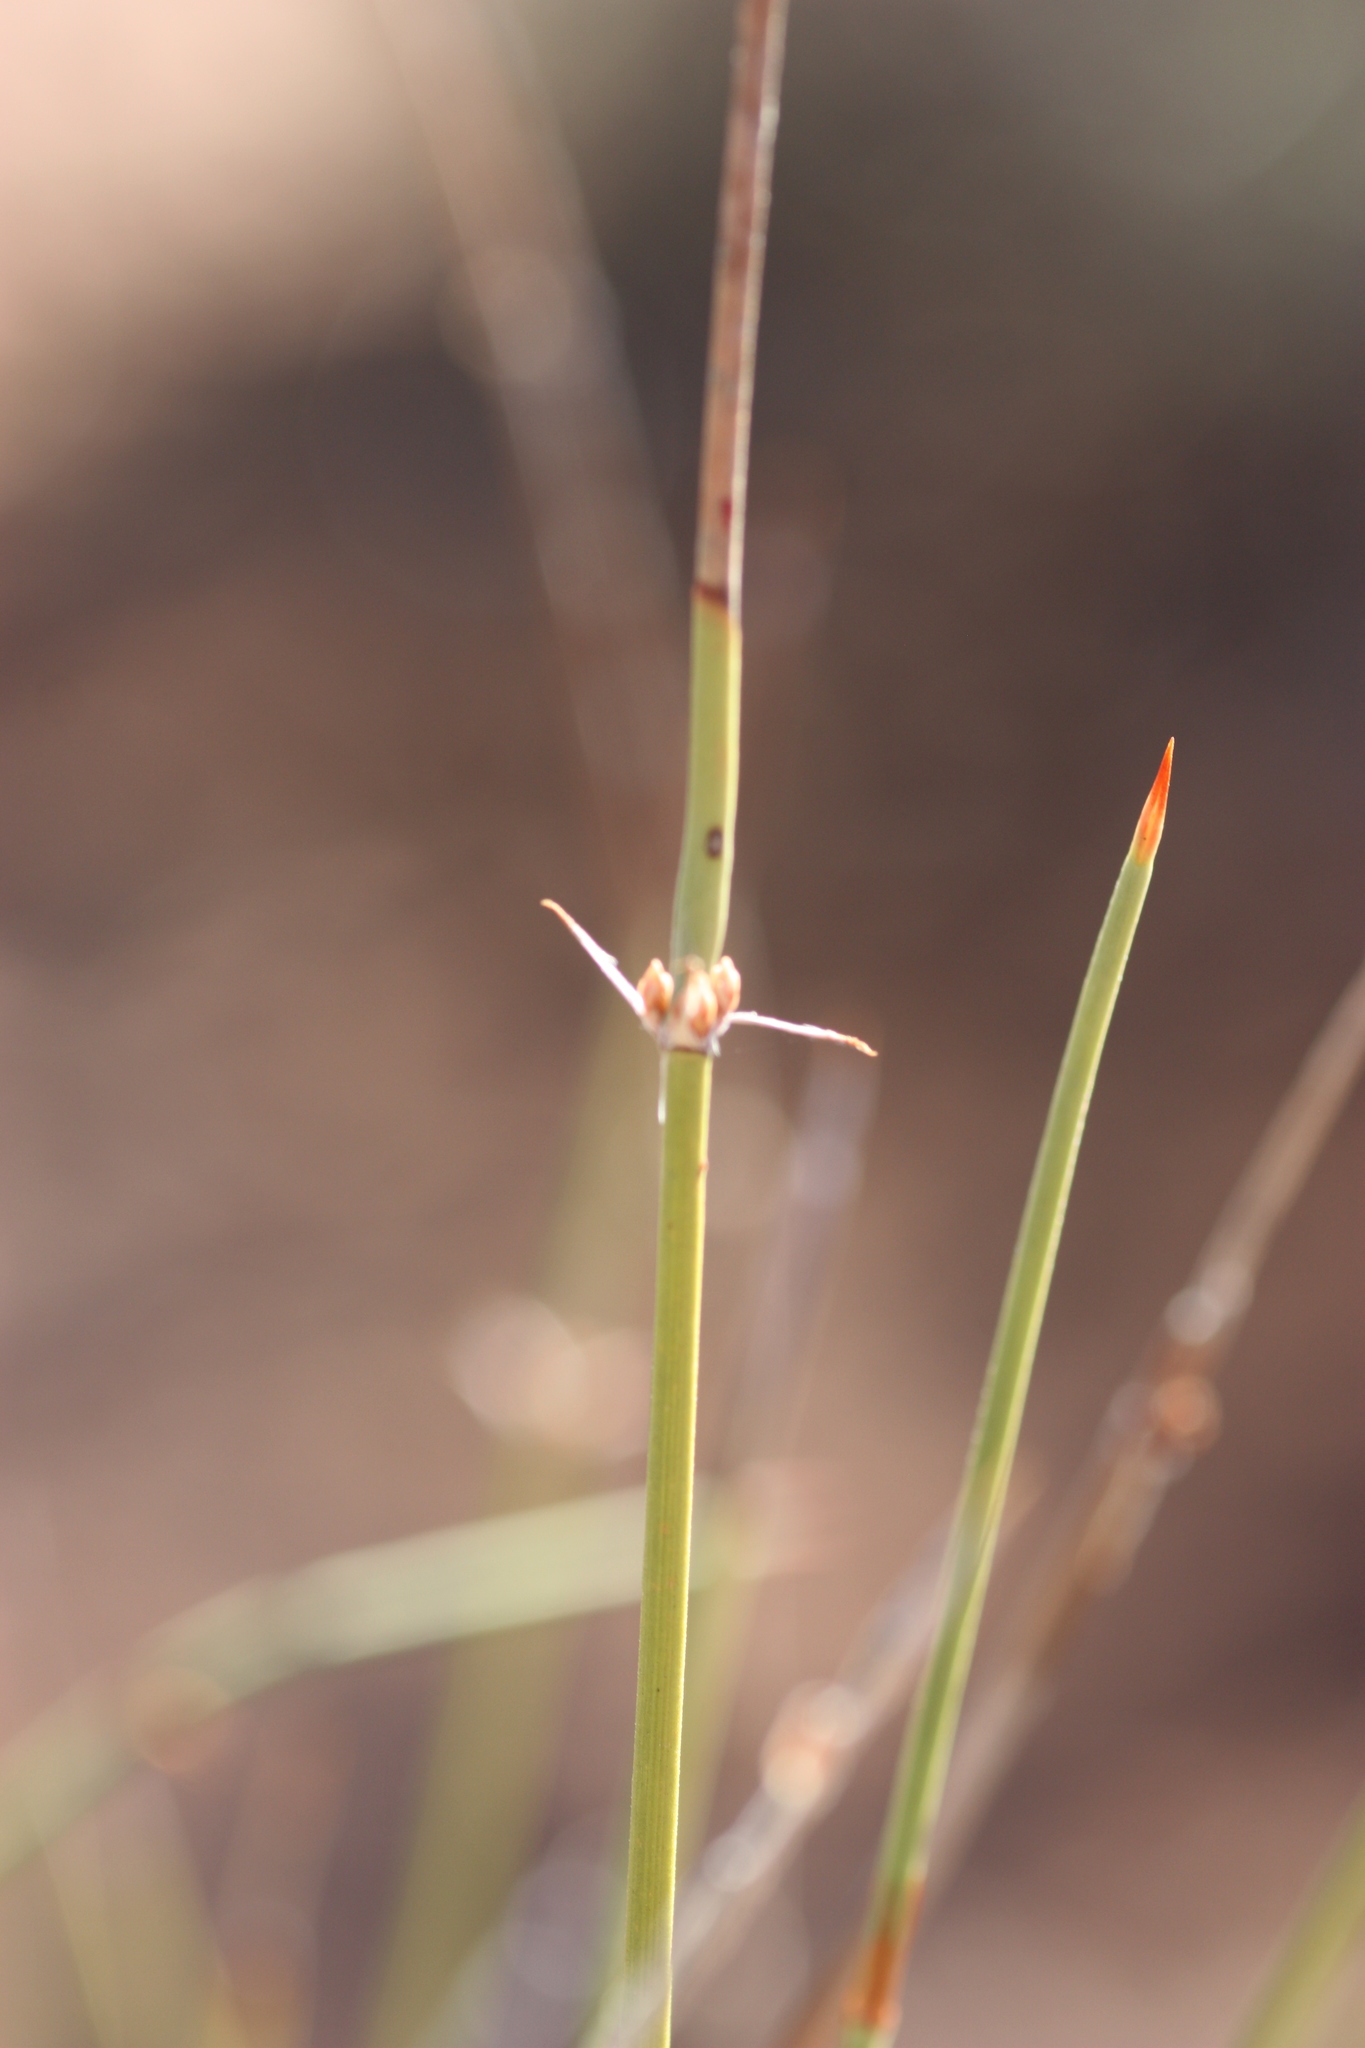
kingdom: Plantae
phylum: Tracheophyta
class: Gnetopsida
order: Ephedrales
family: Ephedraceae
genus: Ephedra
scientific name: Ephedra trifurca
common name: Mexican-tea
